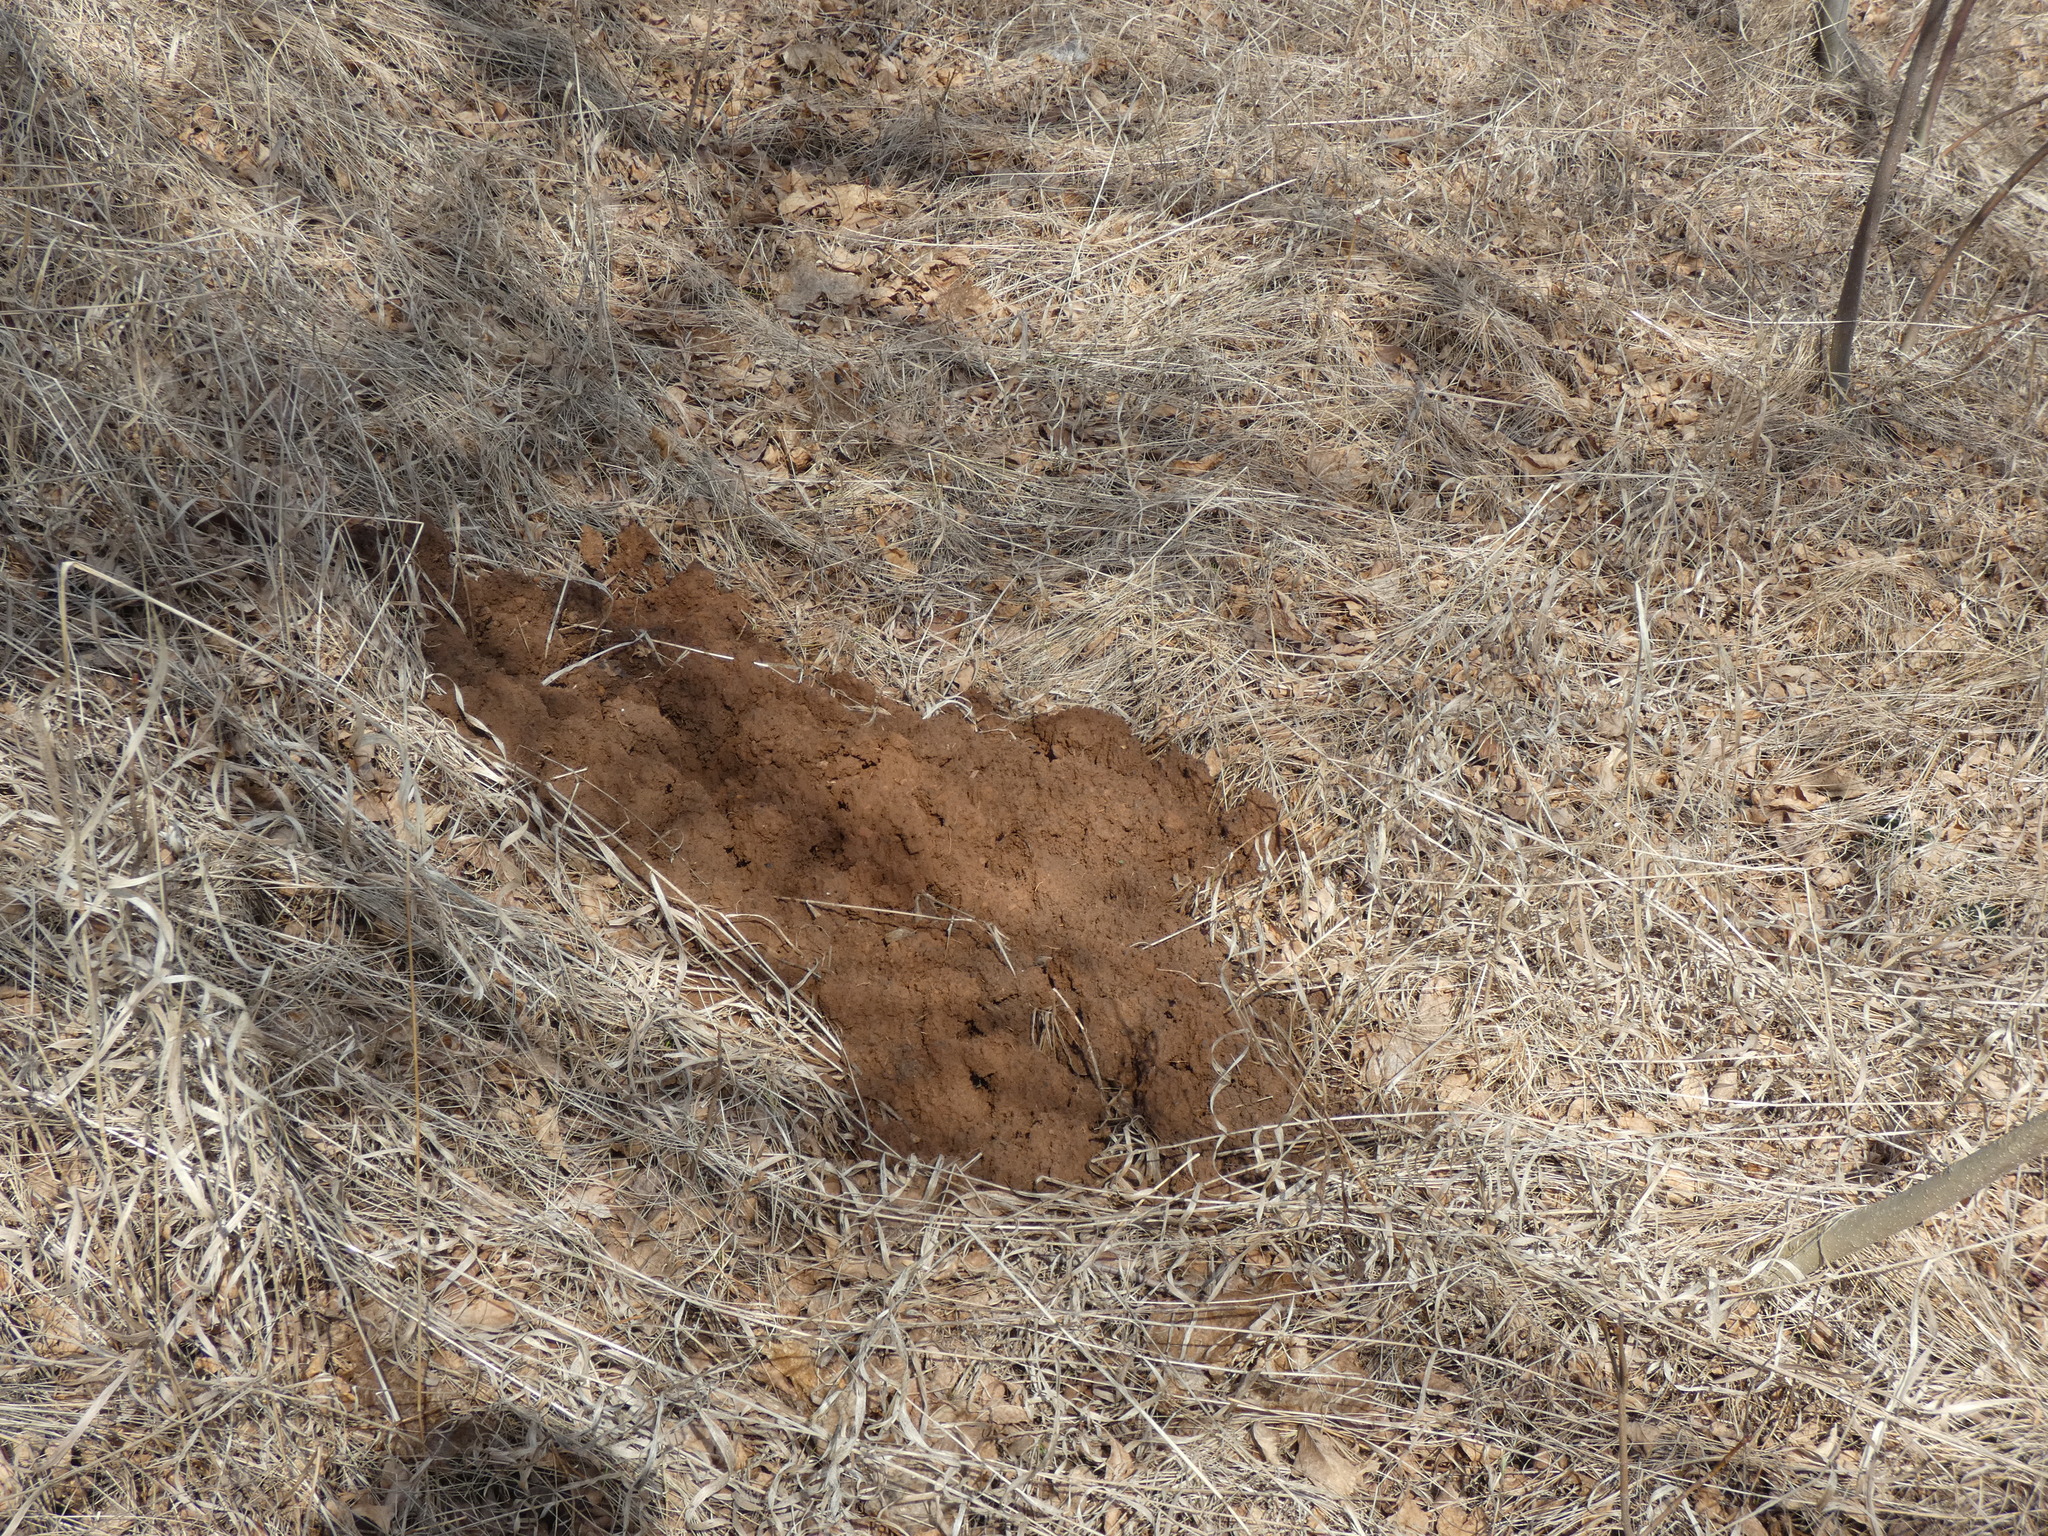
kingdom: Animalia
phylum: Chordata
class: Mammalia
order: Soricomorpha
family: Talpidae
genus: Talpa
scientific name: Talpa europaea
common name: European mole
